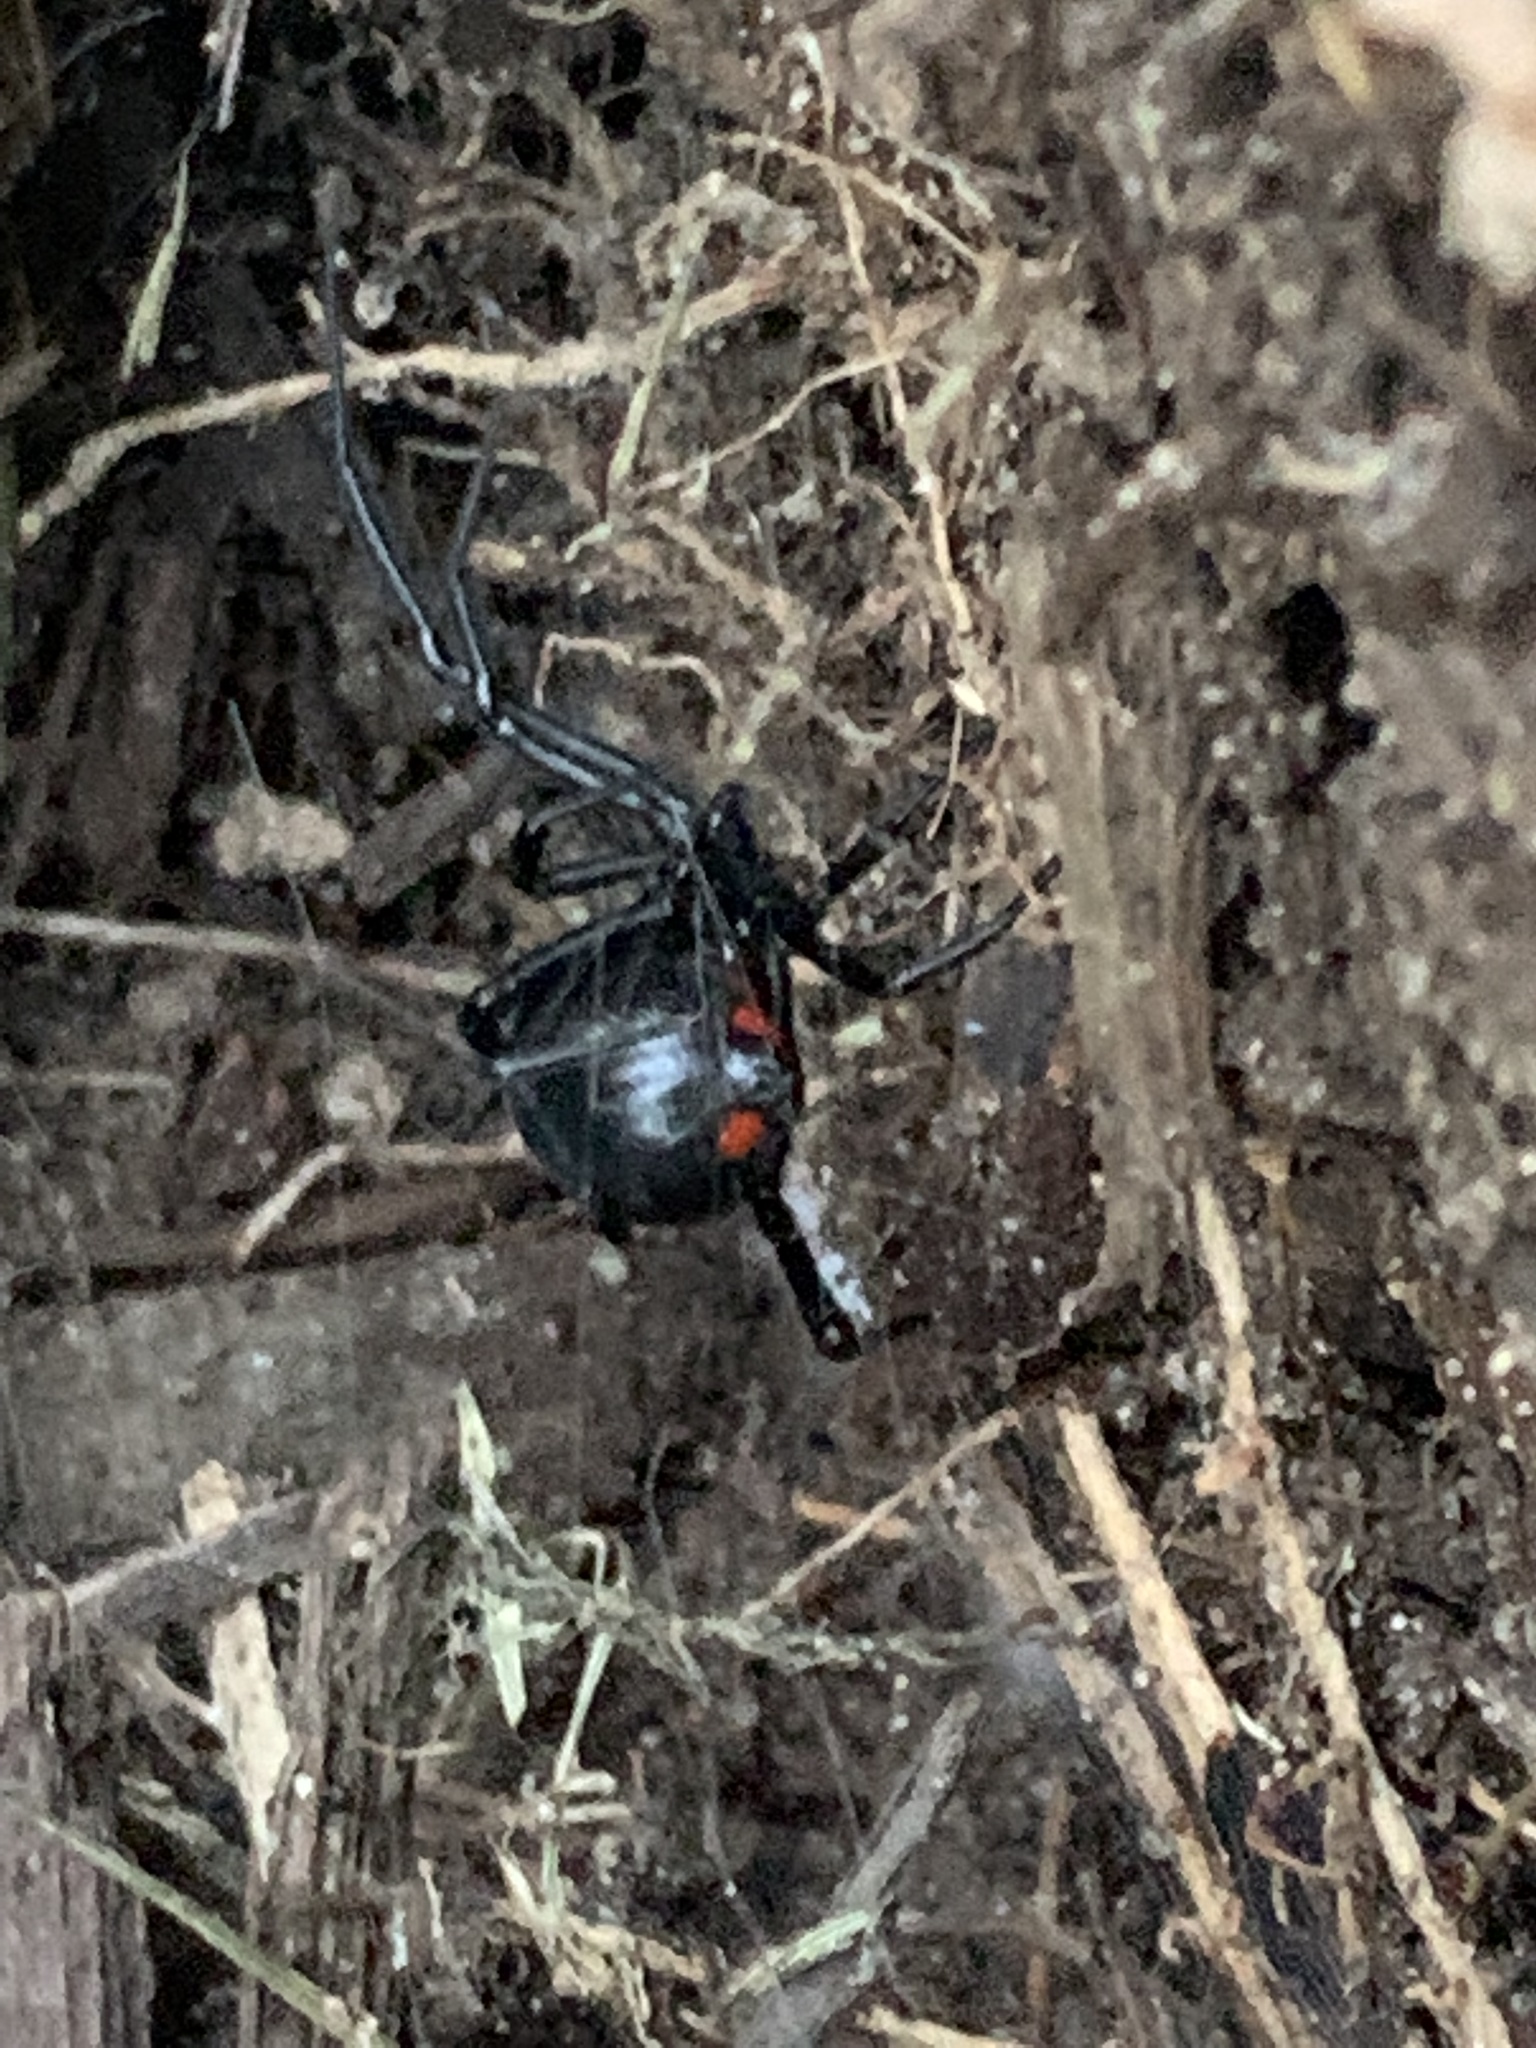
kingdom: Animalia
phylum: Arthropoda
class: Arachnida
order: Araneae
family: Theridiidae
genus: Latrodectus
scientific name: Latrodectus mactans
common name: Cobweb spiders
